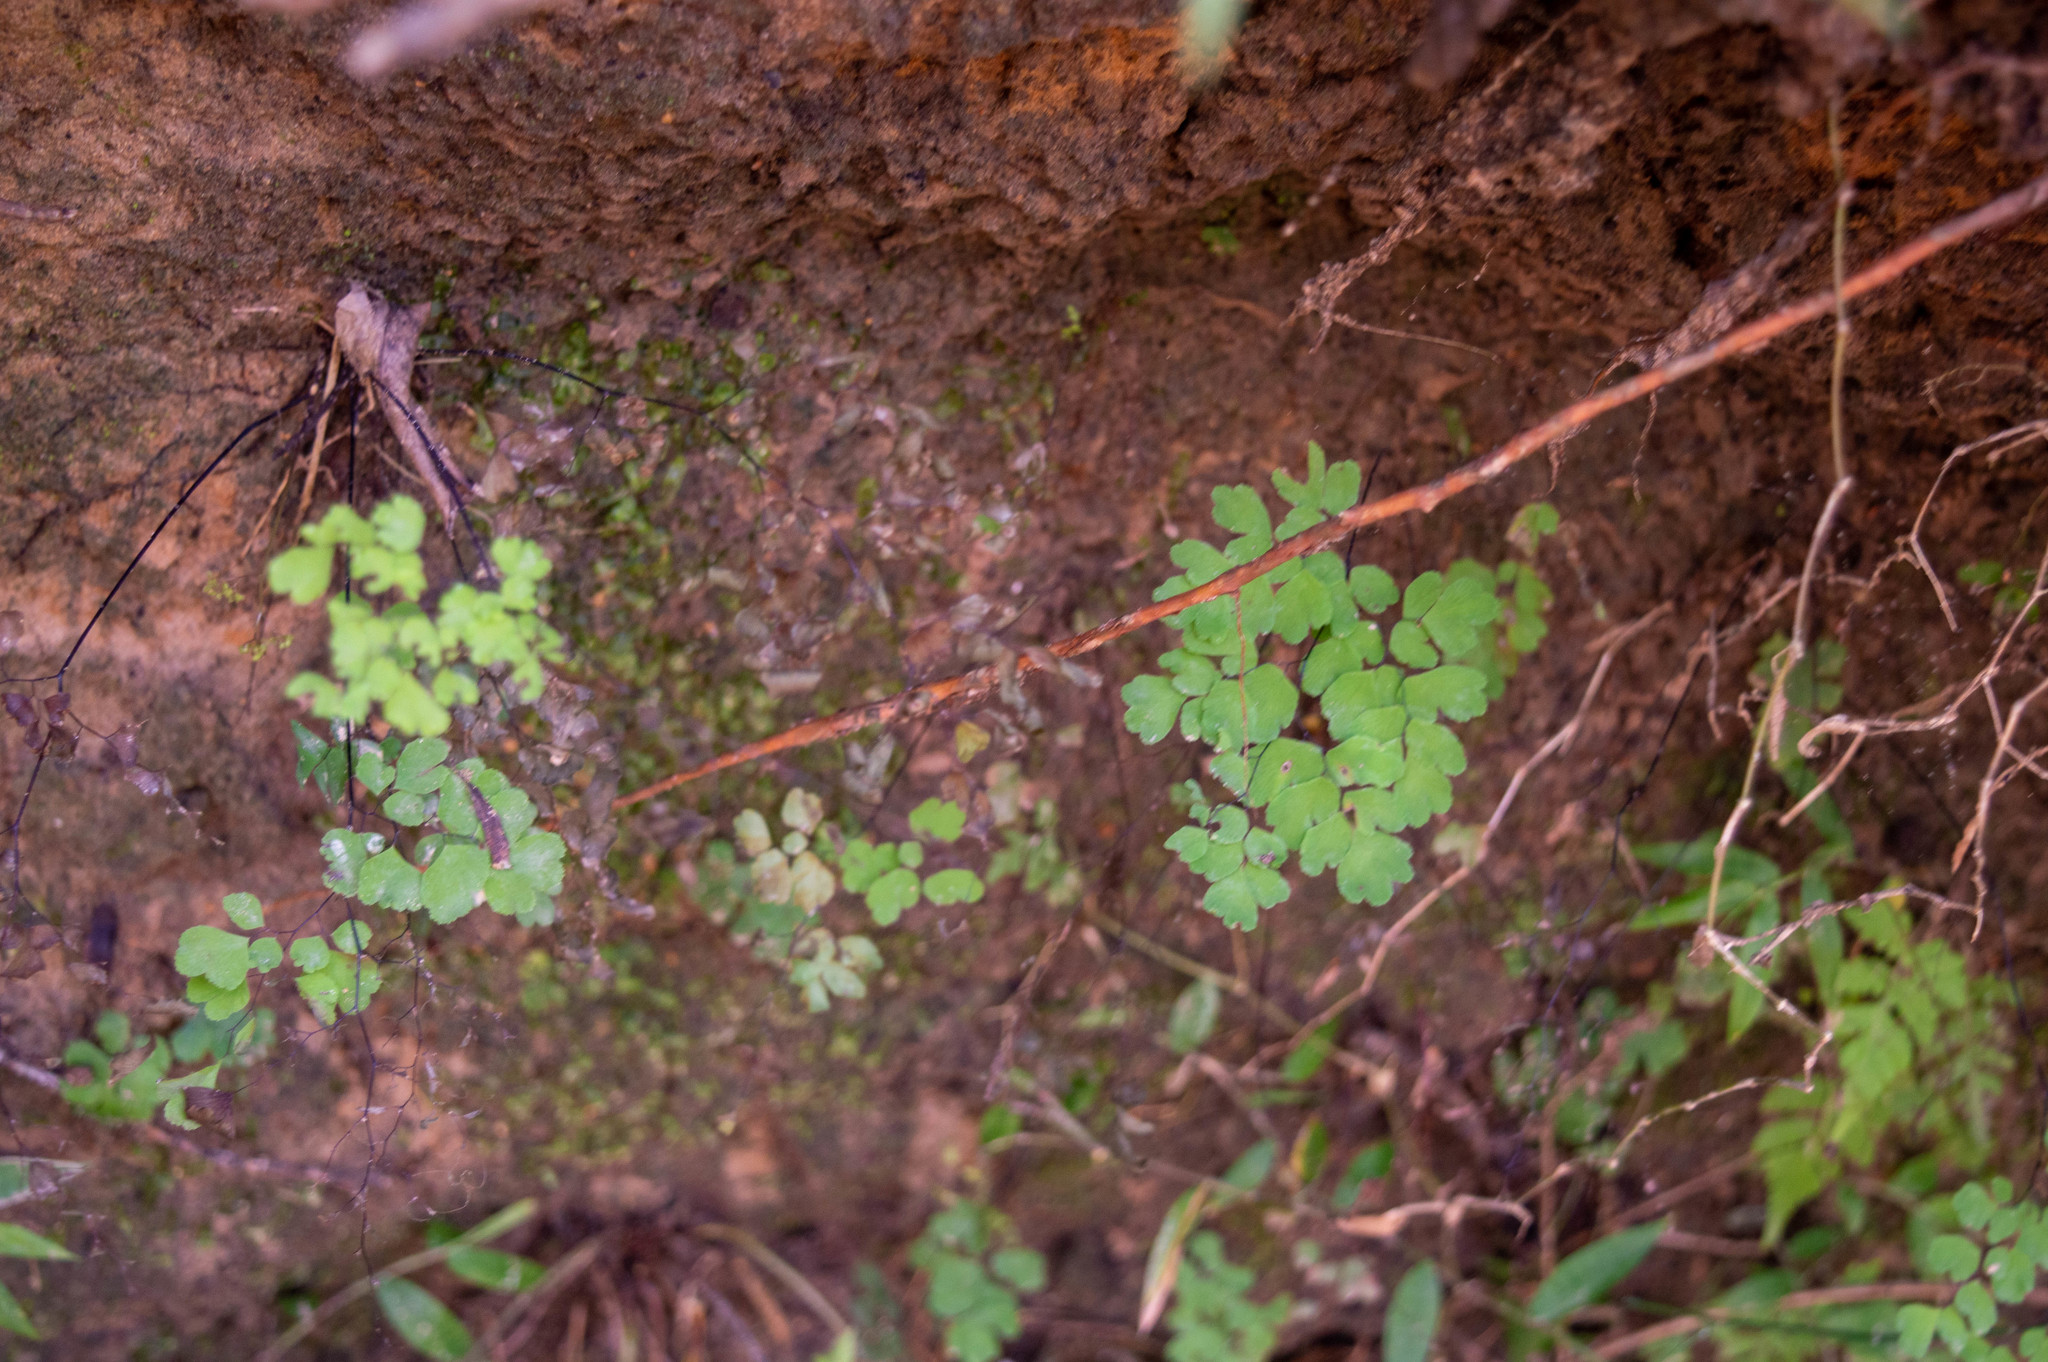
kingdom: Plantae
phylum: Tracheophyta
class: Polypodiopsida
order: Polypodiales
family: Pteridaceae
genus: Adiantum
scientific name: Adiantum raddianum
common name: Delta maidenhair fern
